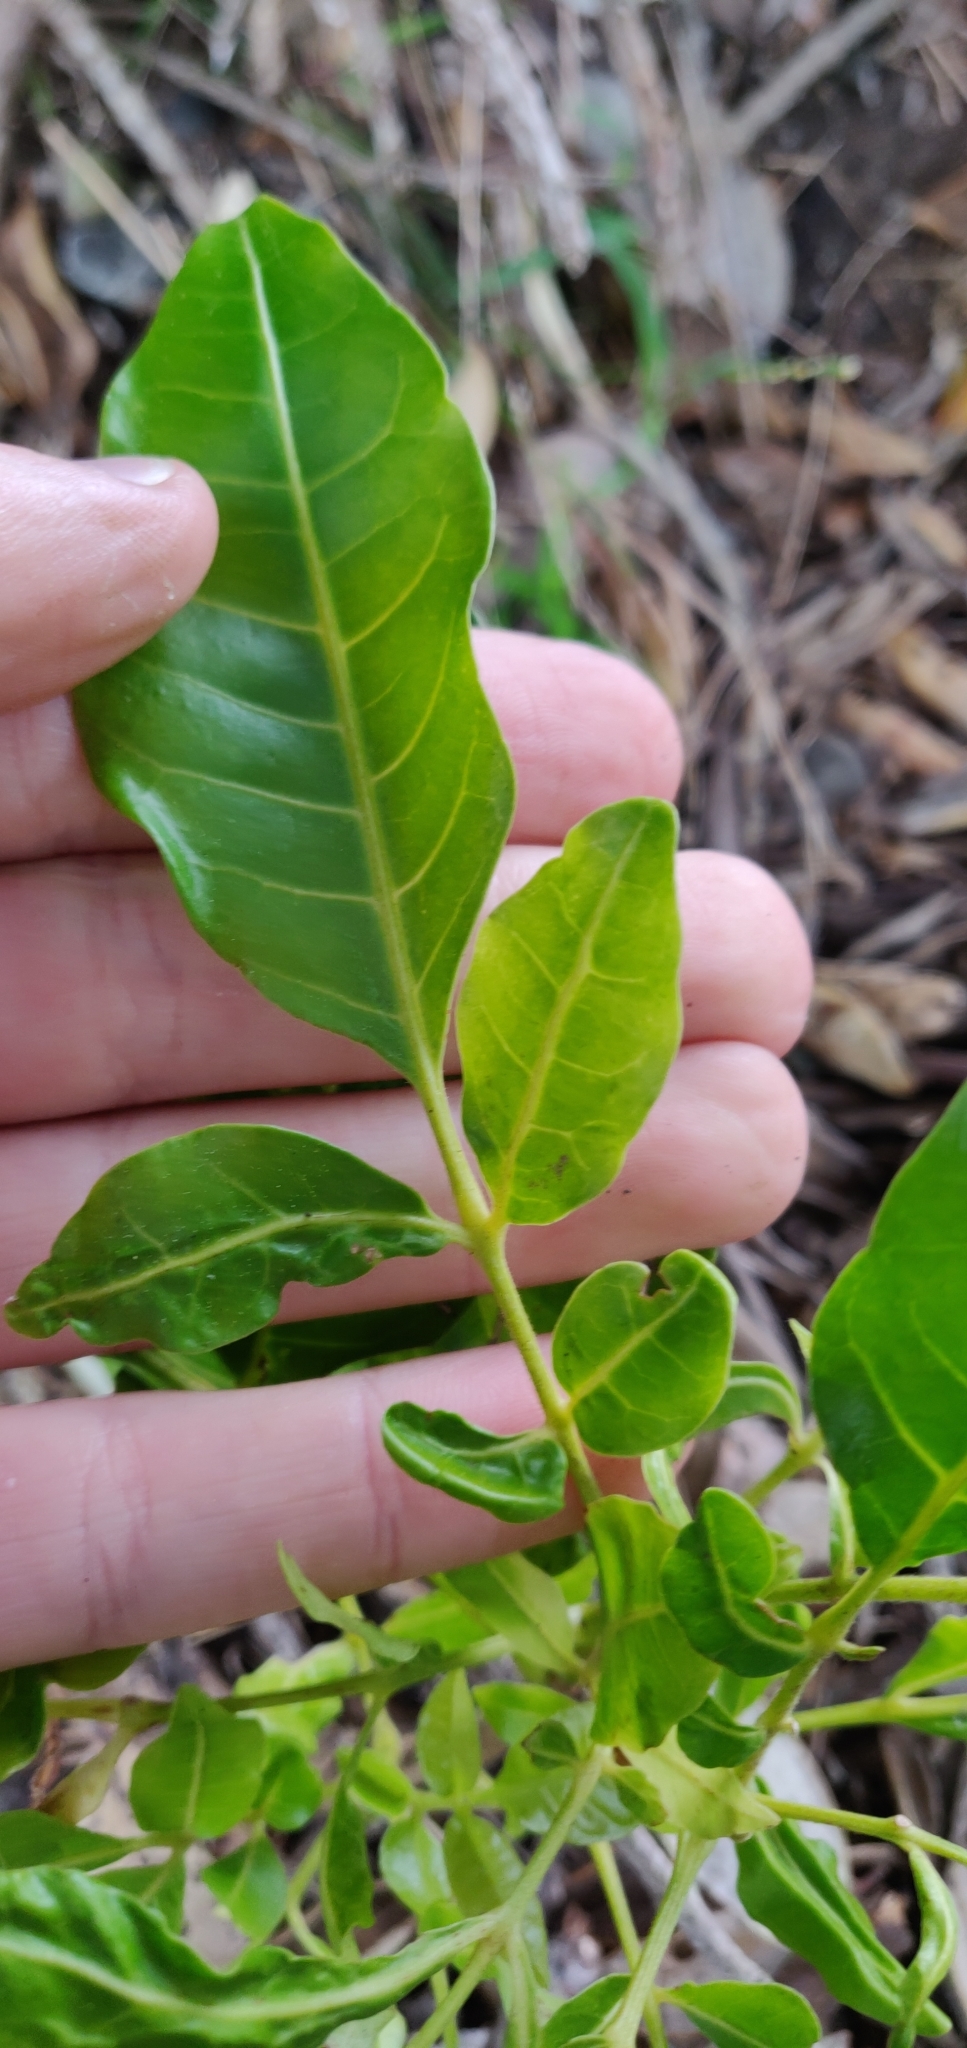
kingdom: Plantae
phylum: Tracheophyta
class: Magnoliopsida
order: Sapindales
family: Meliaceae
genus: Didymocheton
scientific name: Didymocheton spectabilis
